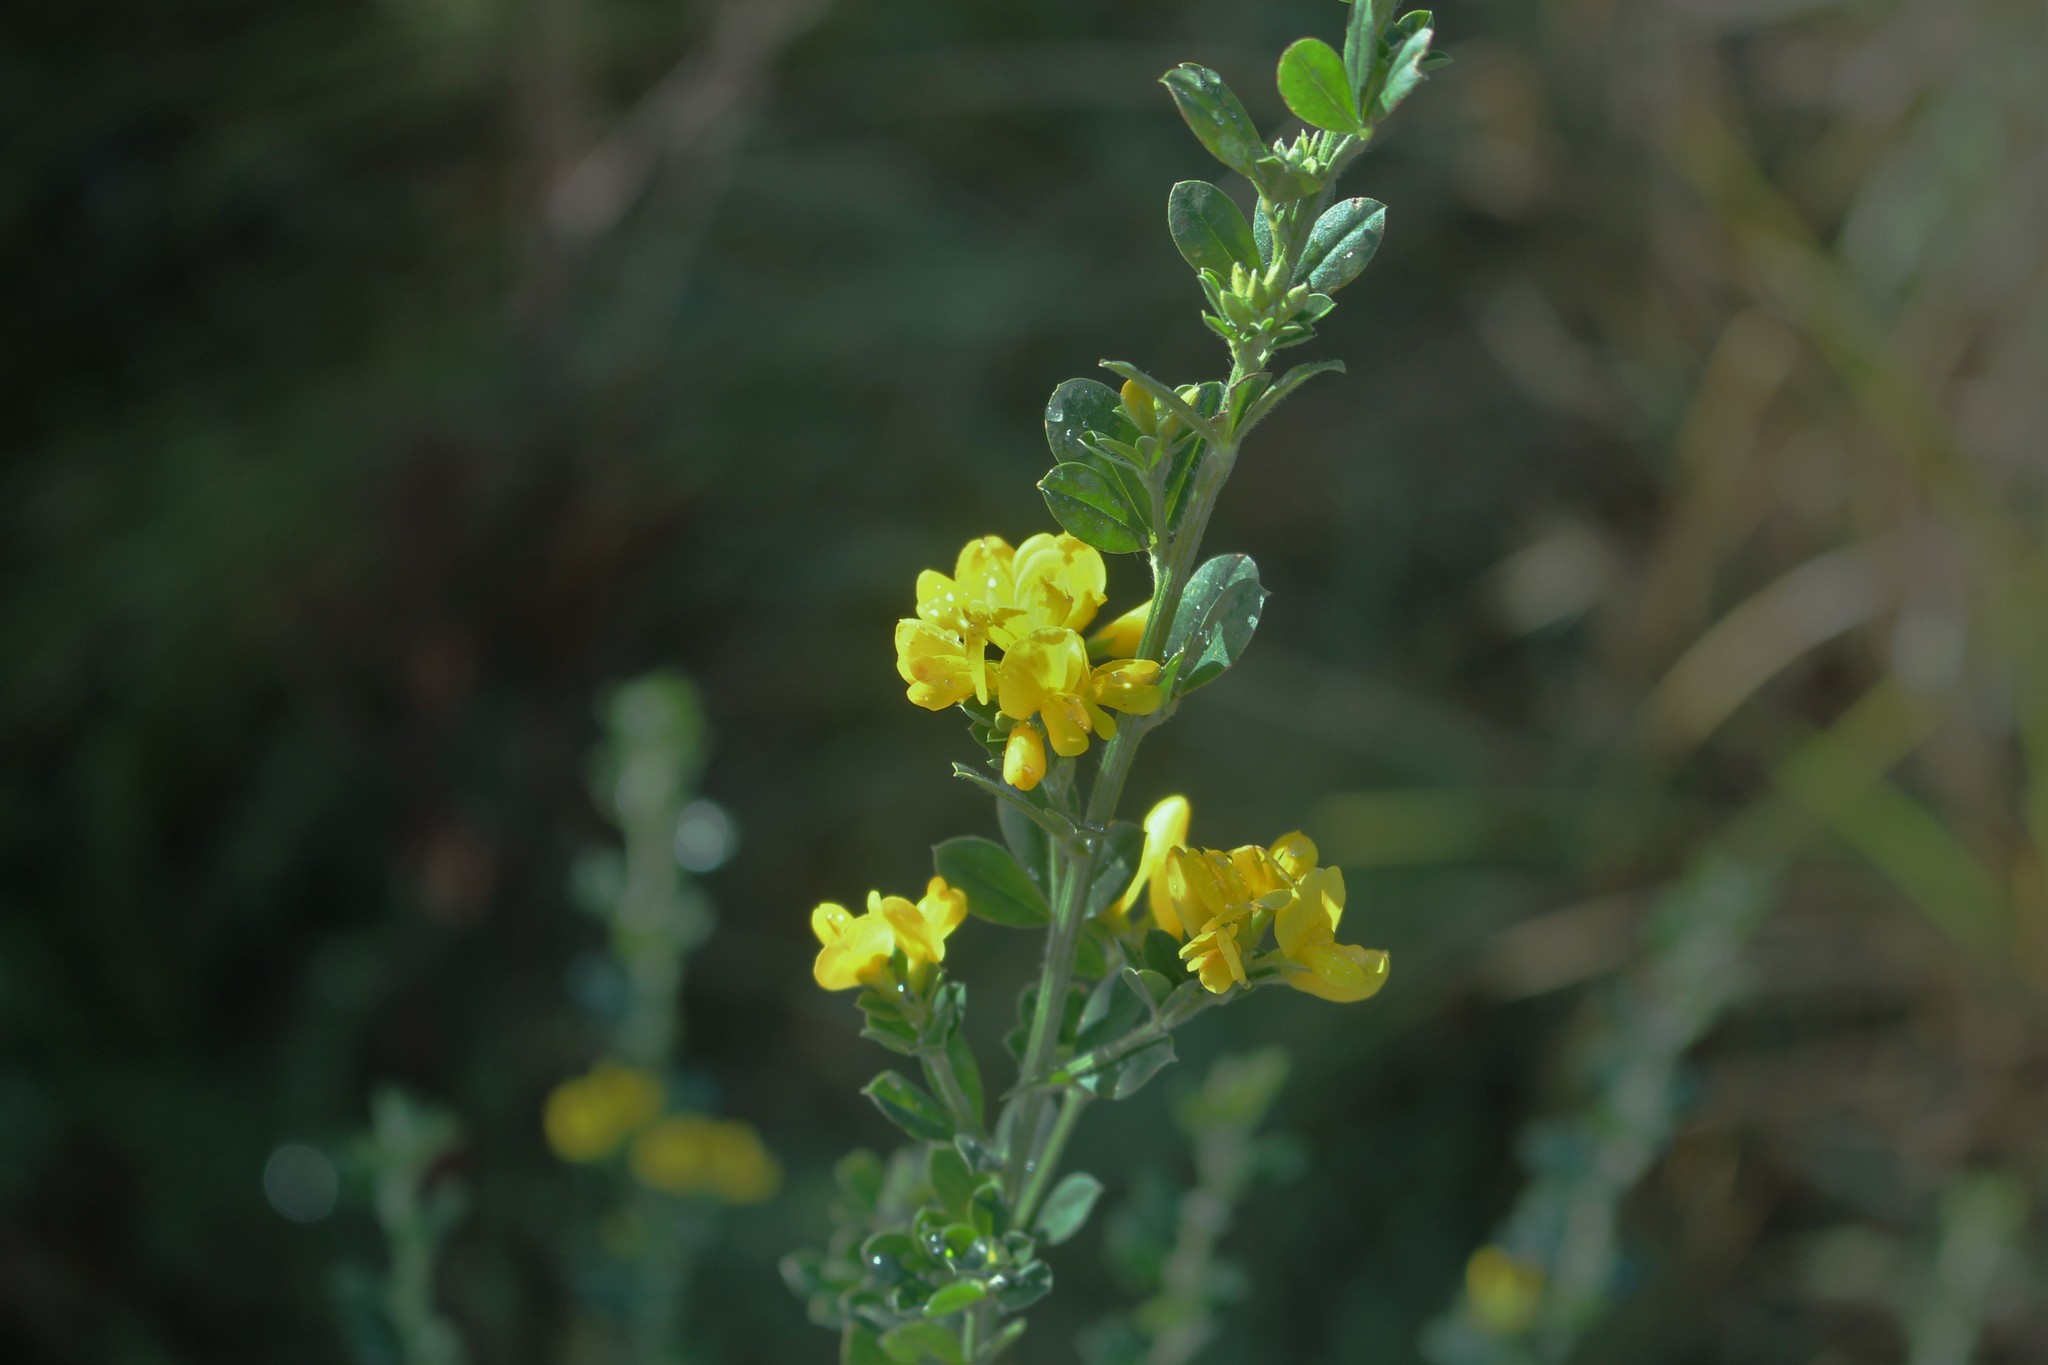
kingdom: Plantae
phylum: Tracheophyta
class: Magnoliopsida
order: Fabales
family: Fabaceae
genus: Genista
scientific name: Genista monspessulana
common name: Montpellier broom
